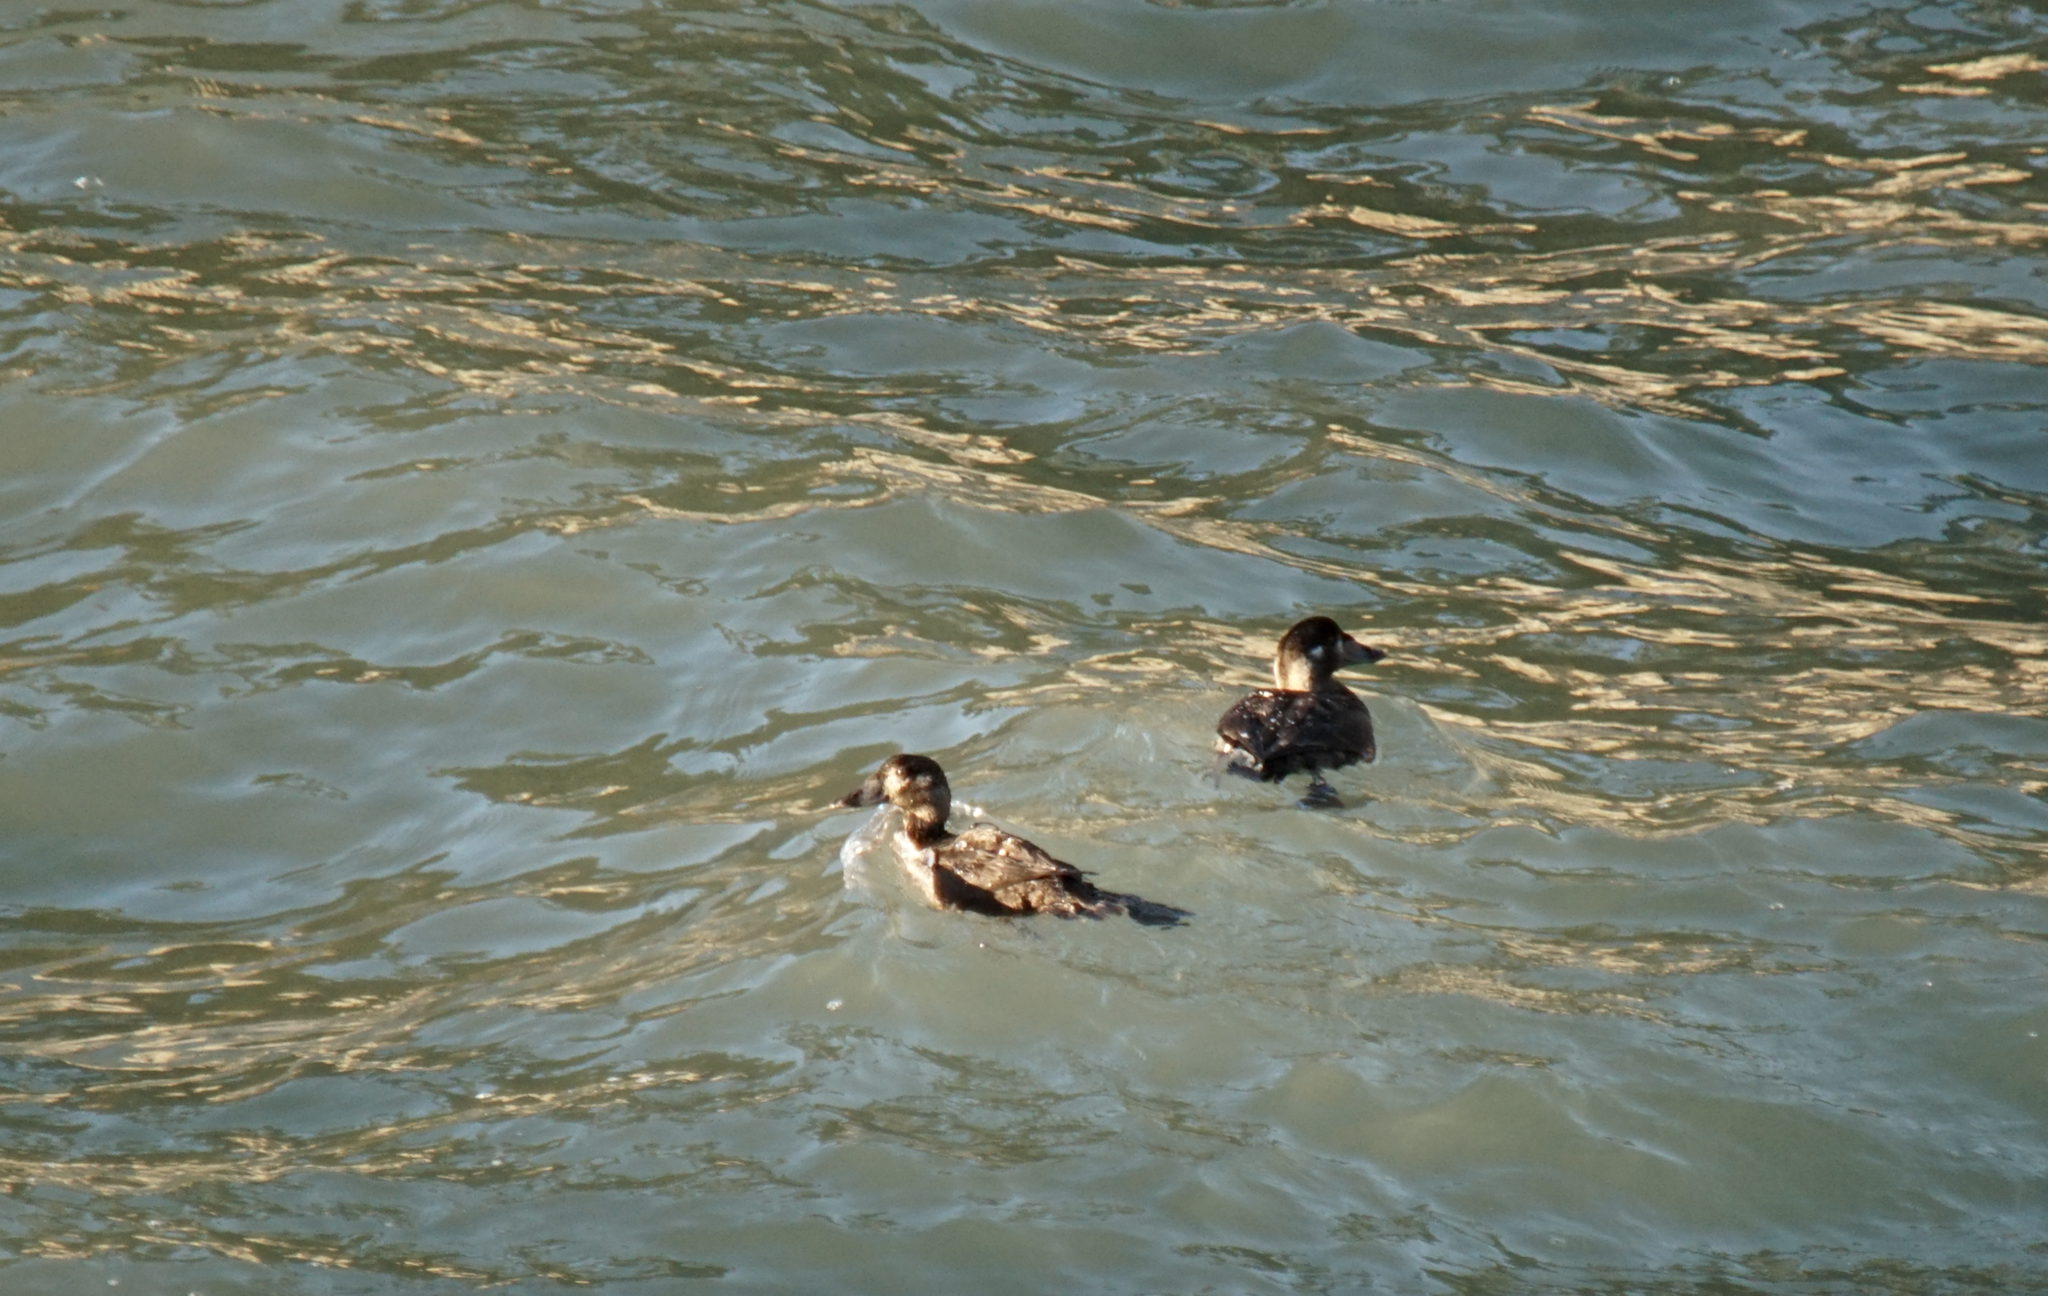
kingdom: Animalia
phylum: Chordata
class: Aves
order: Anseriformes
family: Anatidae
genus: Melanitta
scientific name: Melanitta perspicillata
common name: Surf scoter
